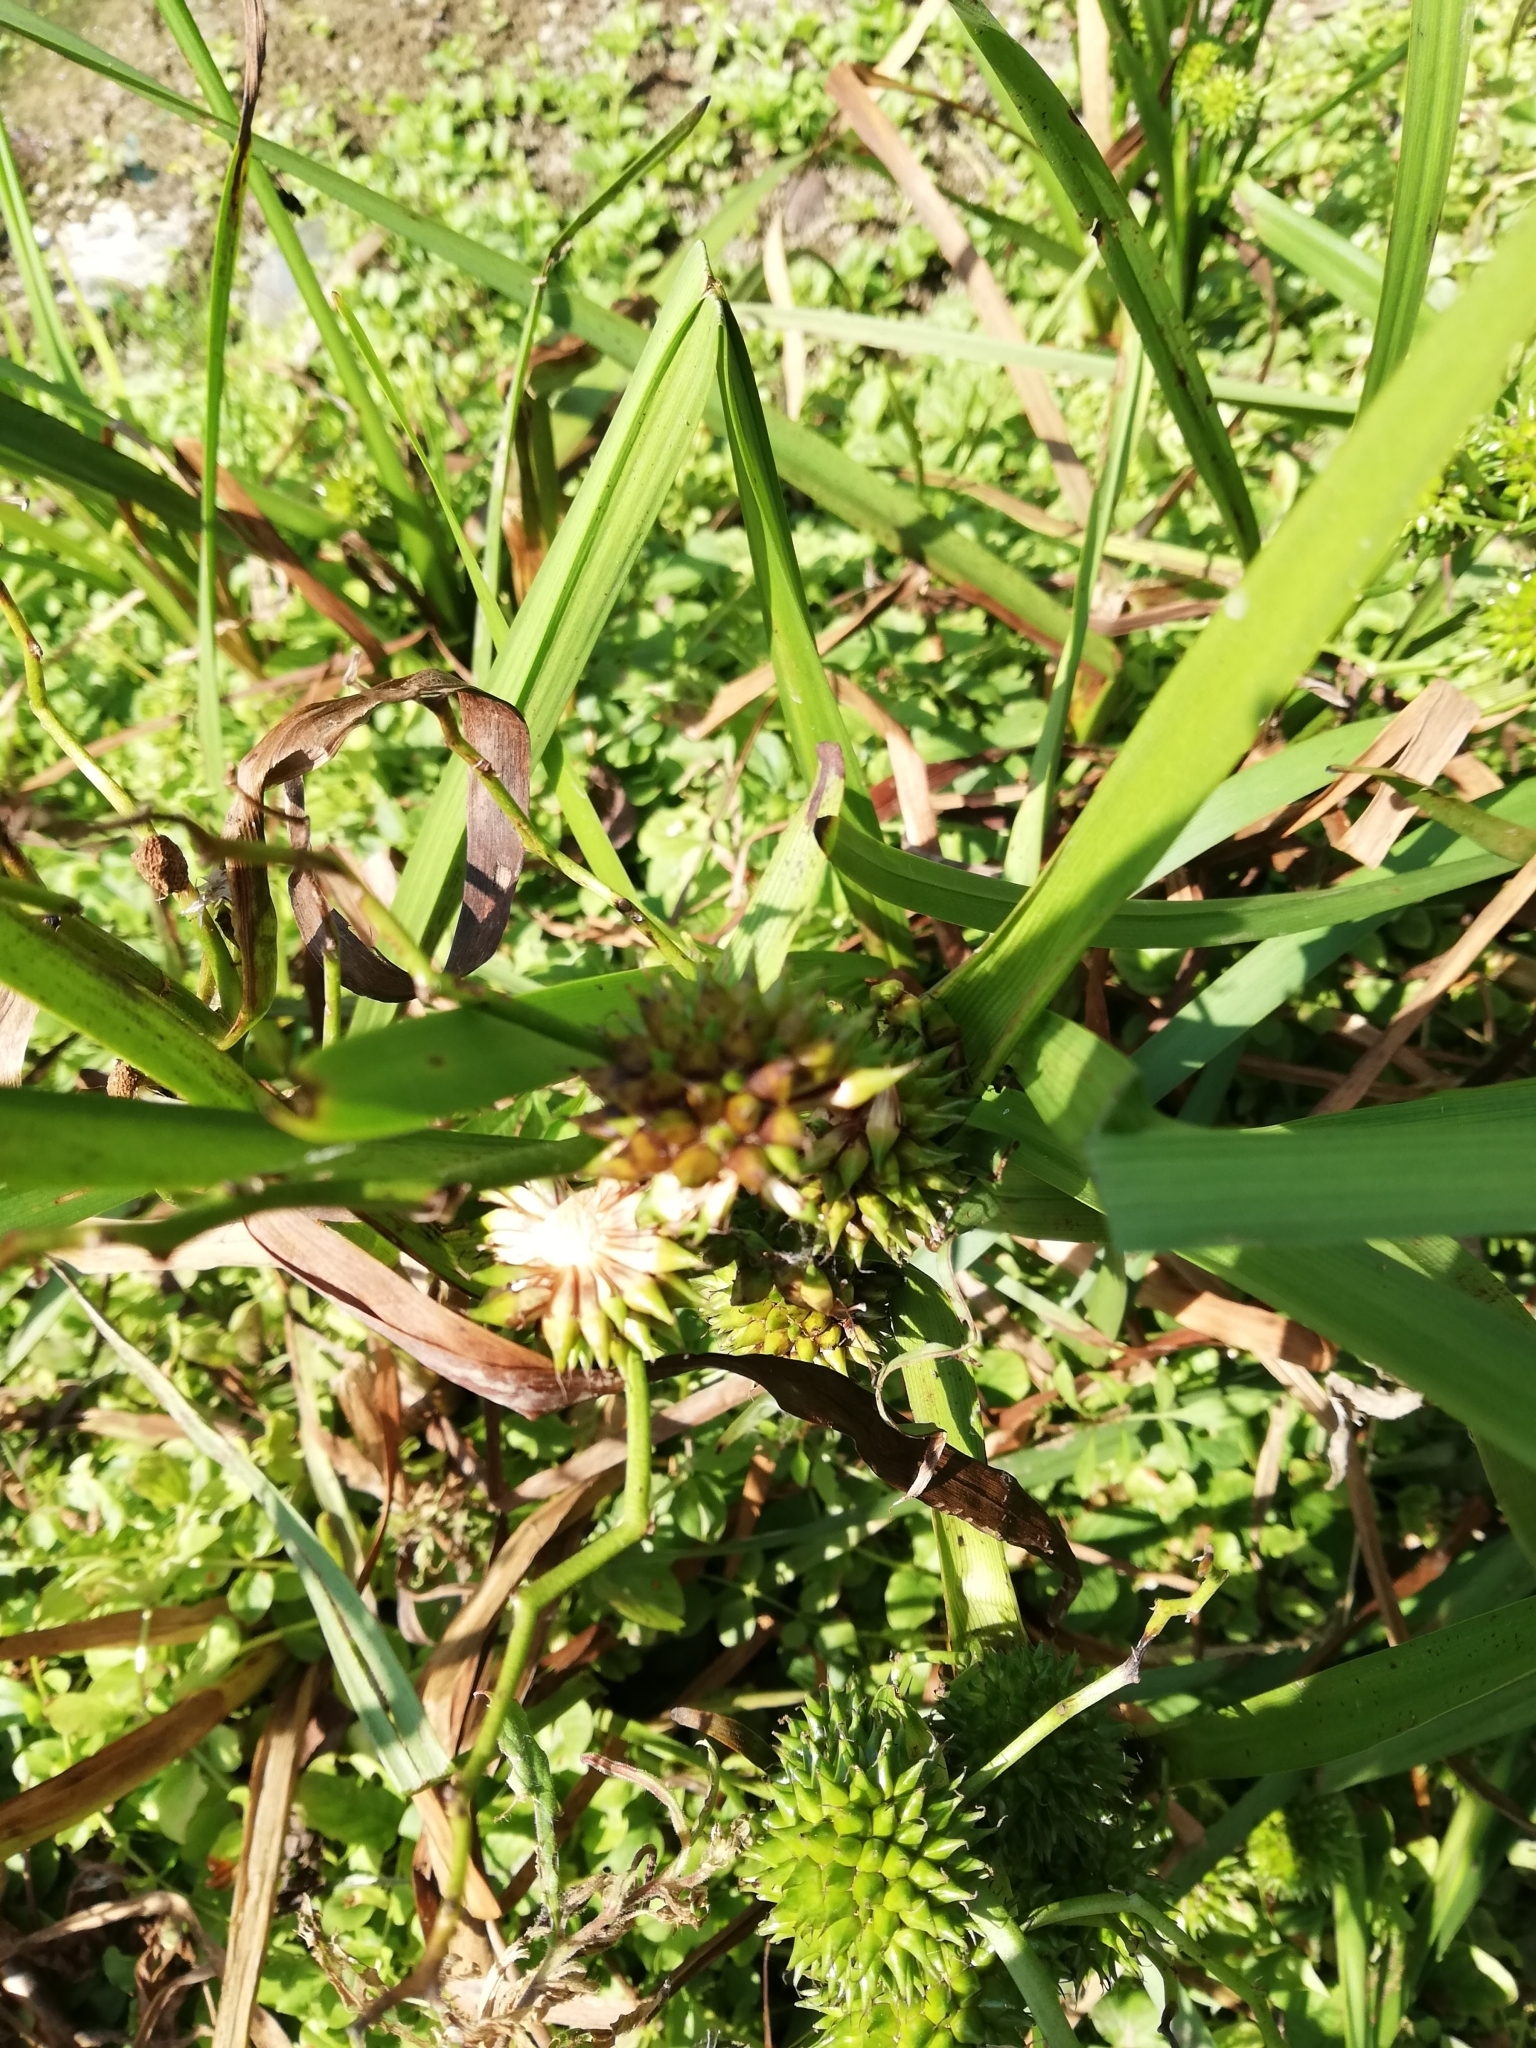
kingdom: Plantae
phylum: Tracheophyta
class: Liliopsida
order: Poales
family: Typhaceae
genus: Sparganium
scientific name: Sparganium erectum
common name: Branched bur-reed
